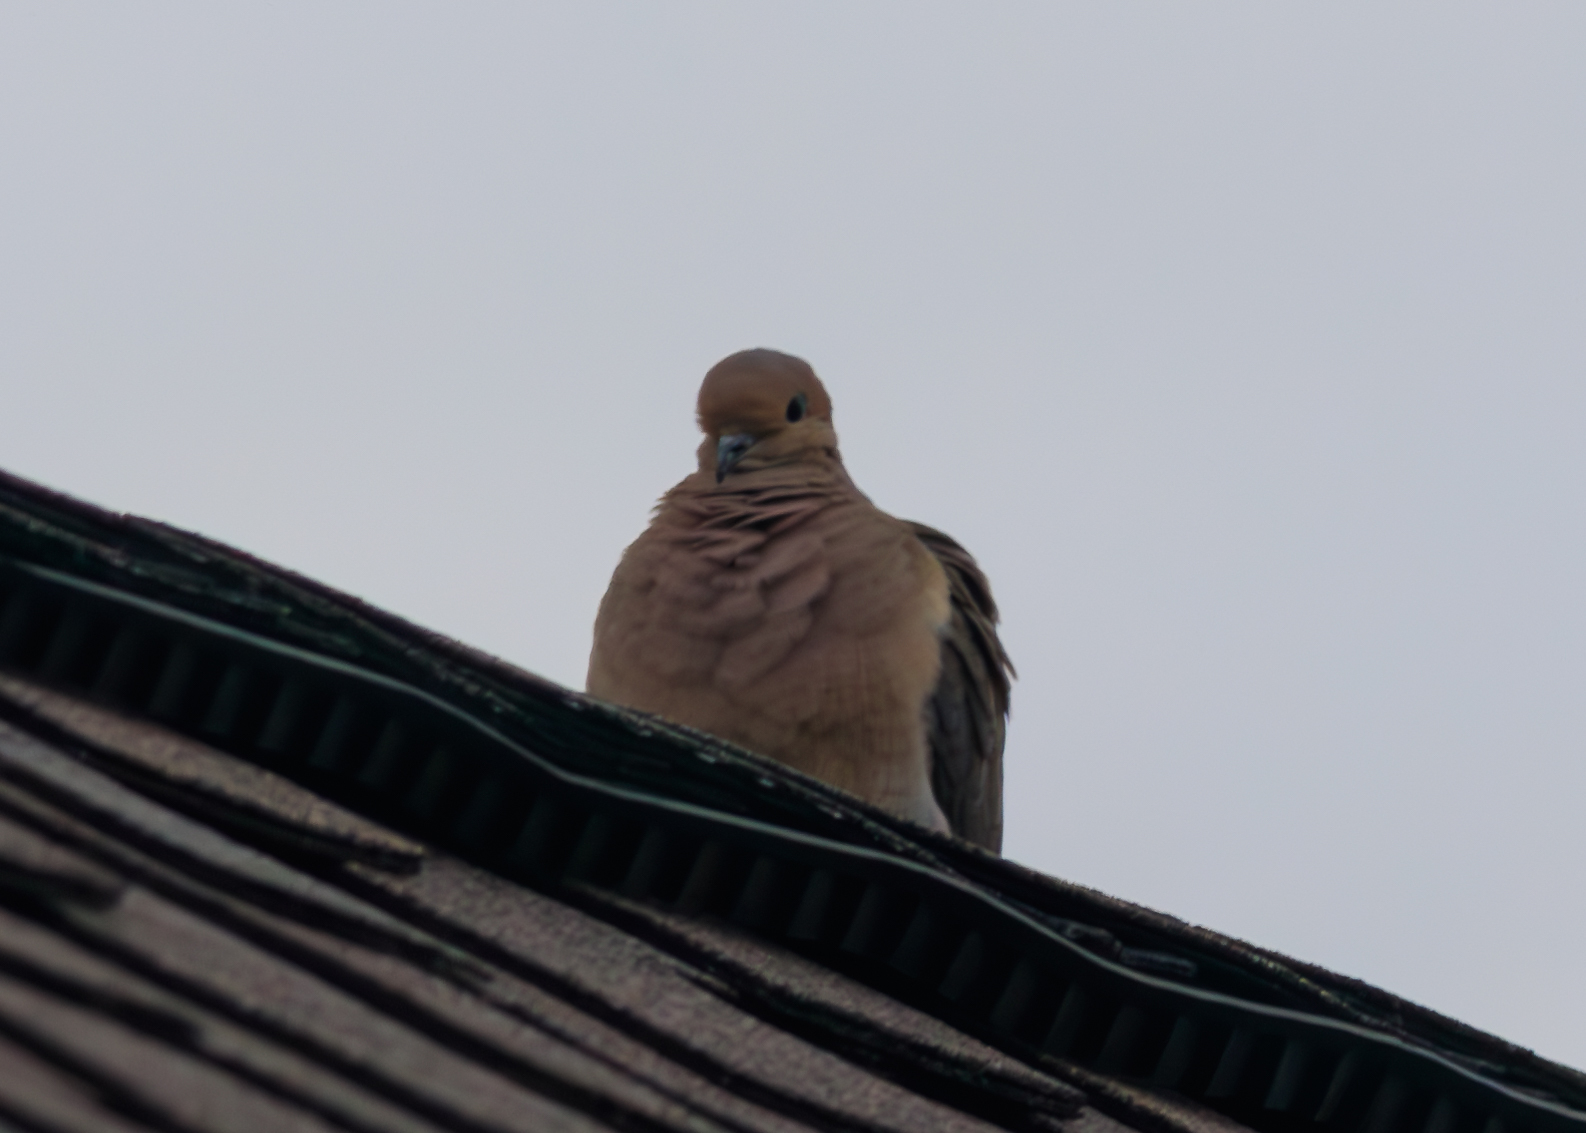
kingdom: Animalia
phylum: Chordata
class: Aves
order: Columbiformes
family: Columbidae
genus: Zenaida
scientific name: Zenaida macroura
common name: Mourning dove
